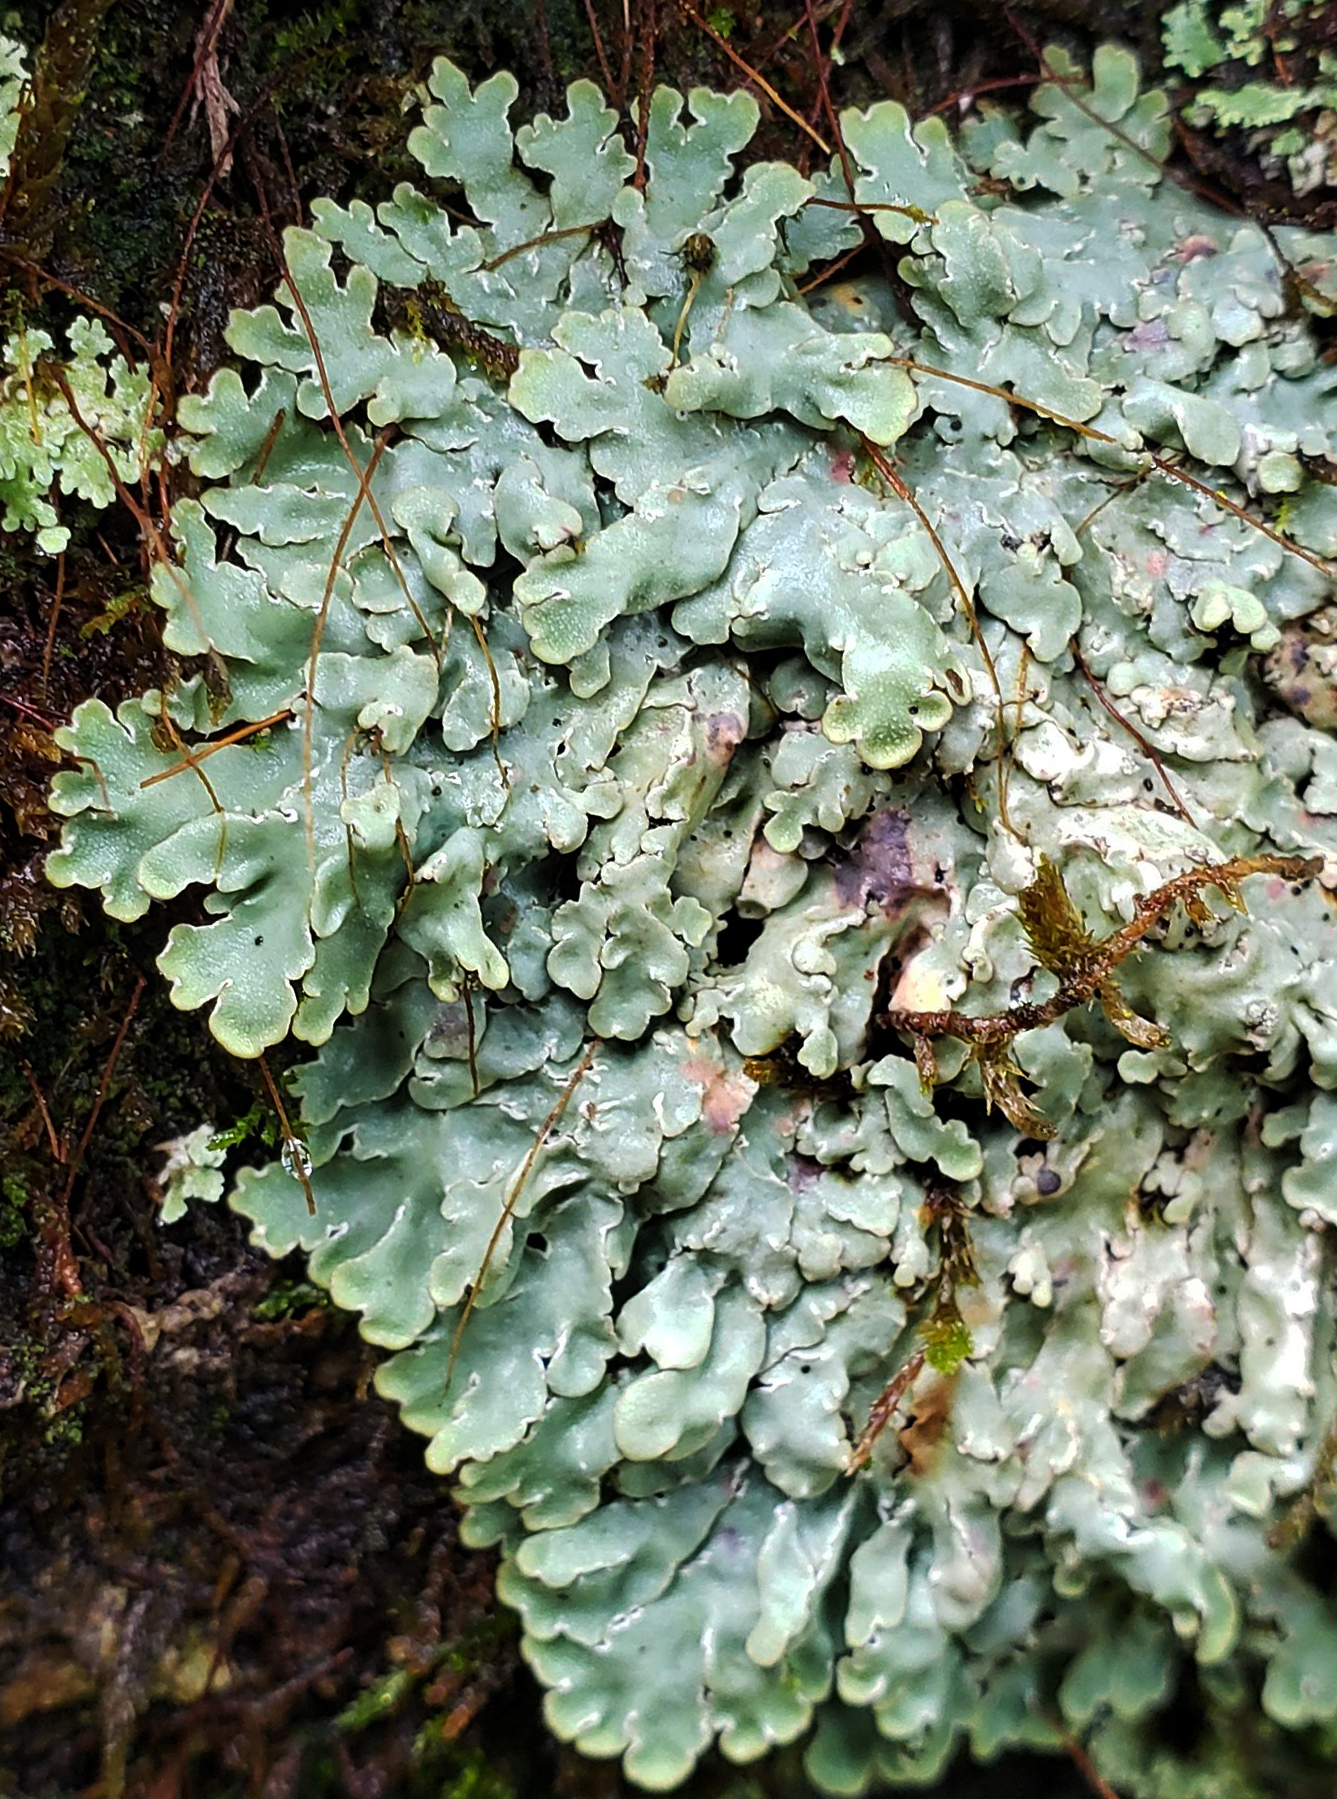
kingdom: Fungi
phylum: Ascomycota
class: Lecanoromycetes
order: Caliciales
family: Caliciaceae
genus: Pyxine
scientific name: Pyxine sorediata
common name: Mustard lichen
